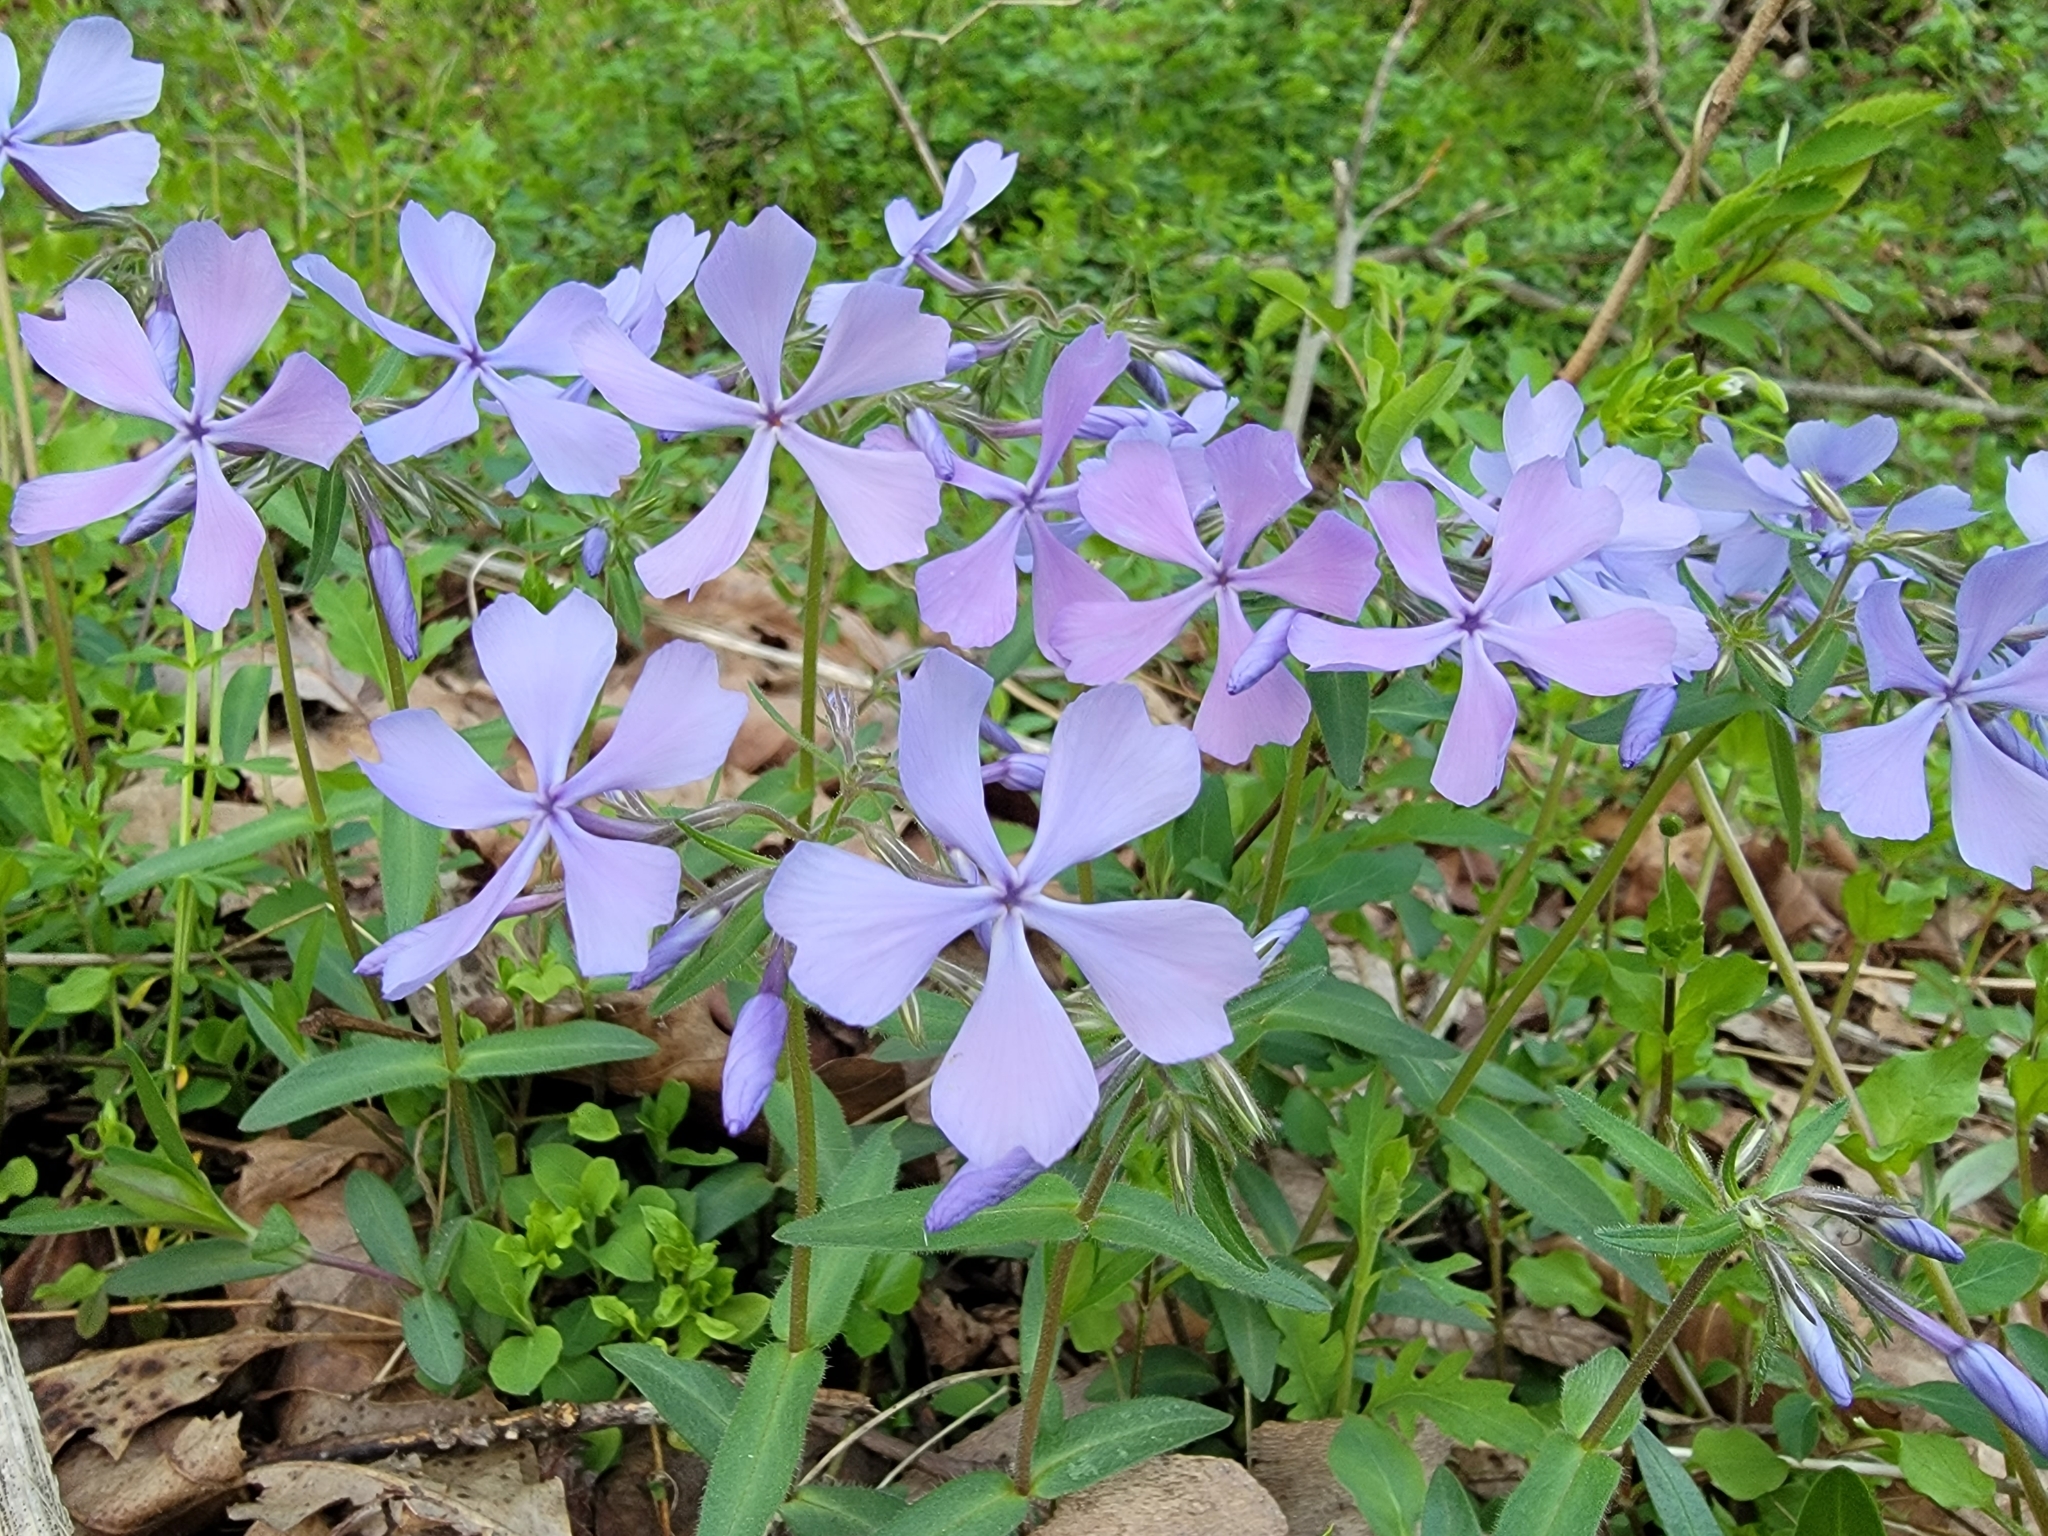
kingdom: Plantae
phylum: Tracheophyta
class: Magnoliopsida
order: Ericales
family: Polemoniaceae
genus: Phlox
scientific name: Phlox divaricata
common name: Blue phlox
